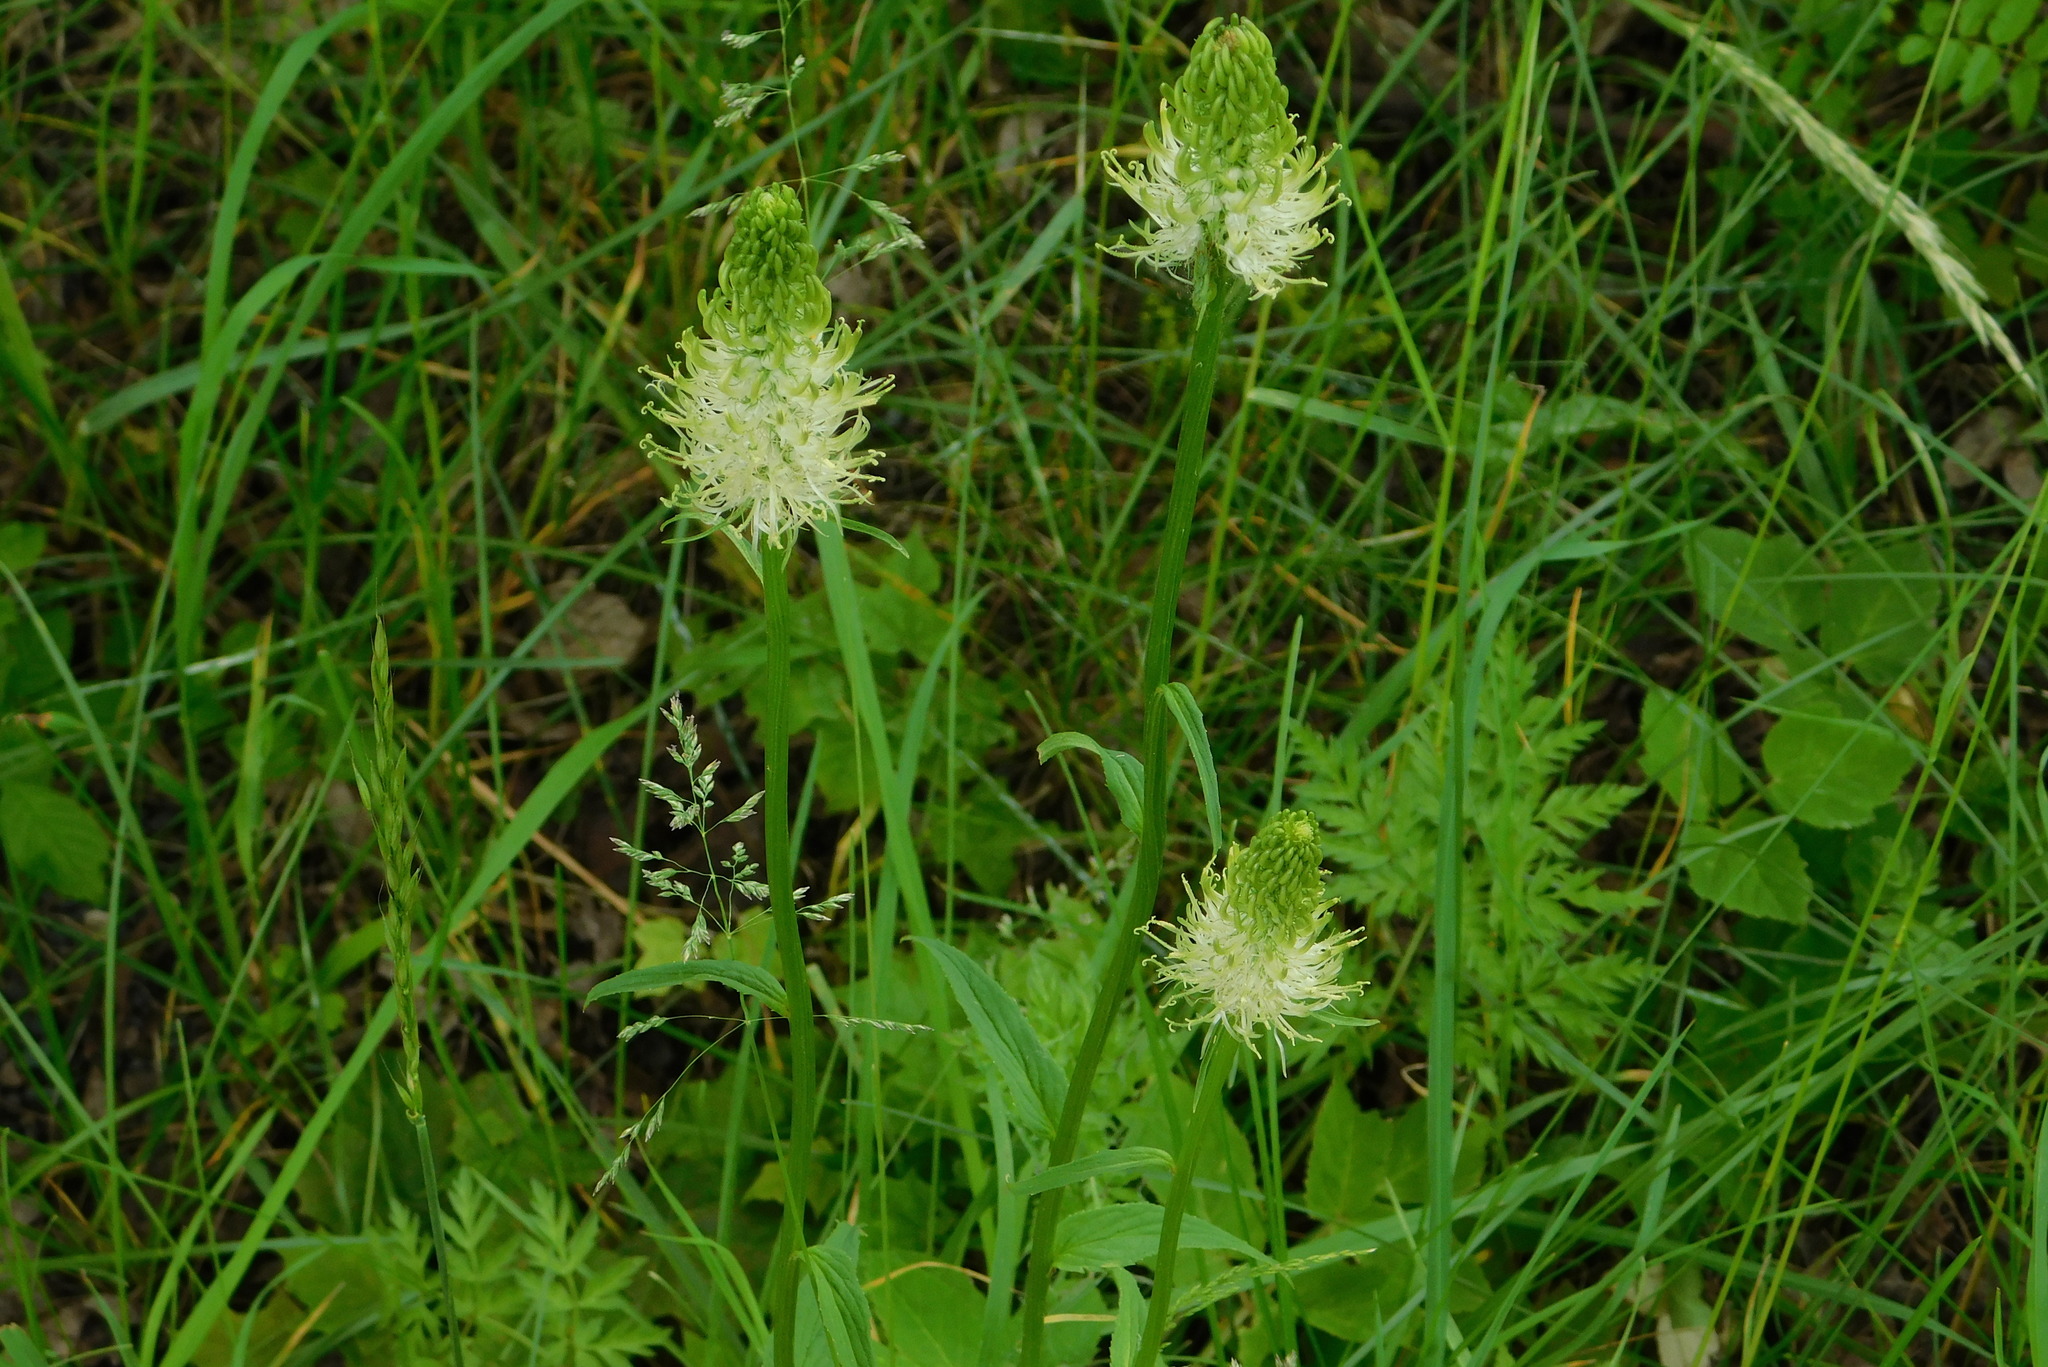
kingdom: Plantae
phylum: Tracheophyta
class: Magnoliopsida
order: Asterales
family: Campanulaceae
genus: Phyteuma
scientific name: Phyteuma spicatum
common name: Spiked rampion
